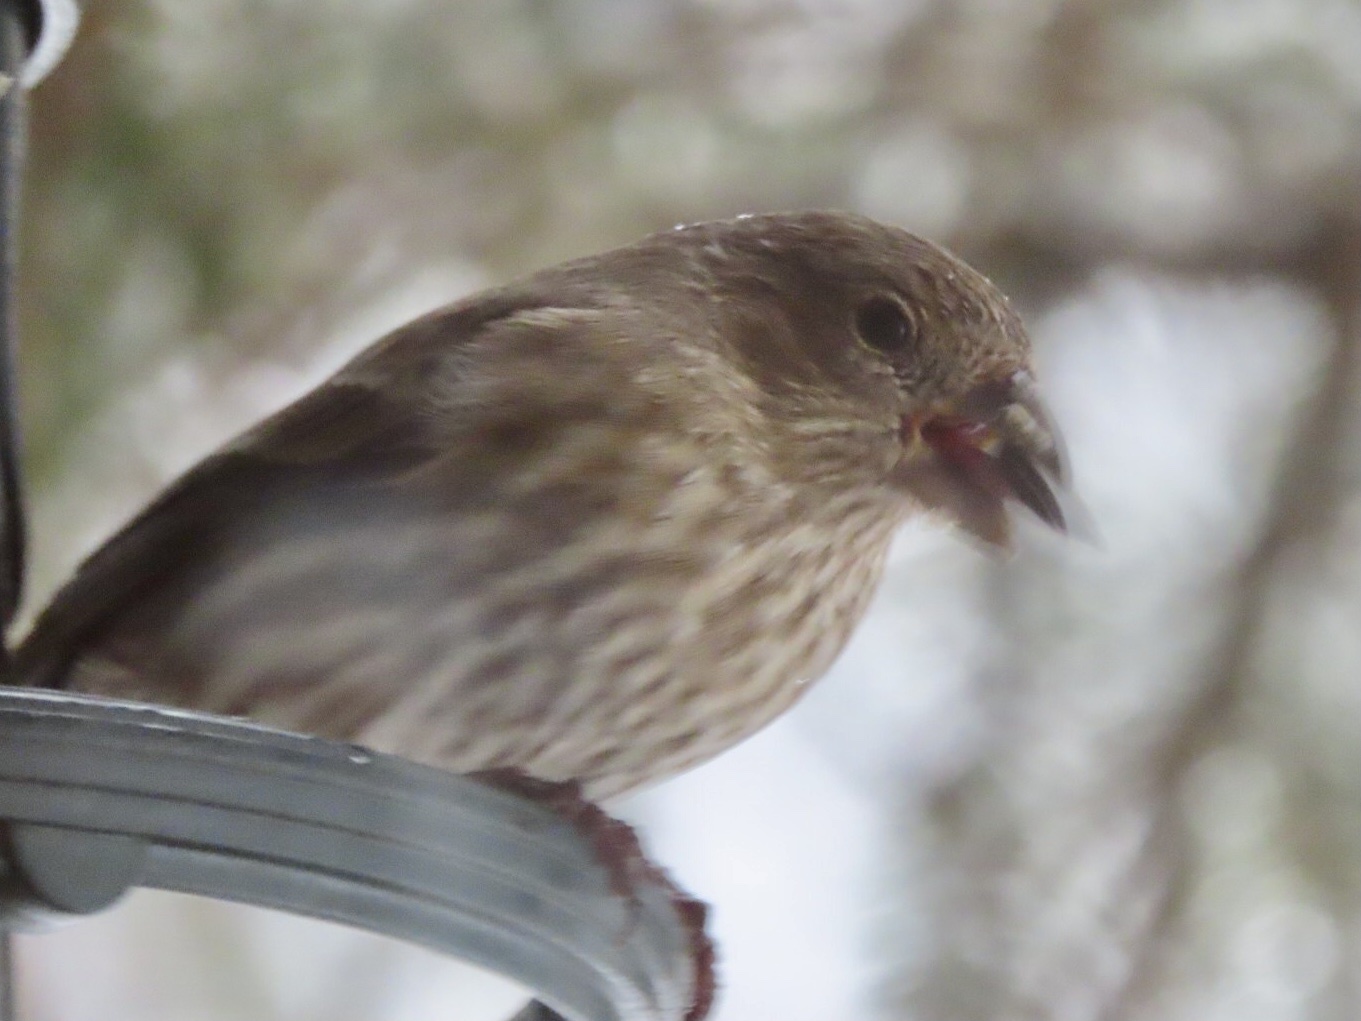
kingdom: Animalia
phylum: Chordata
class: Aves
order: Passeriformes
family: Fringillidae
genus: Haemorhous
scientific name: Haemorhous mexicanus
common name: House finch
